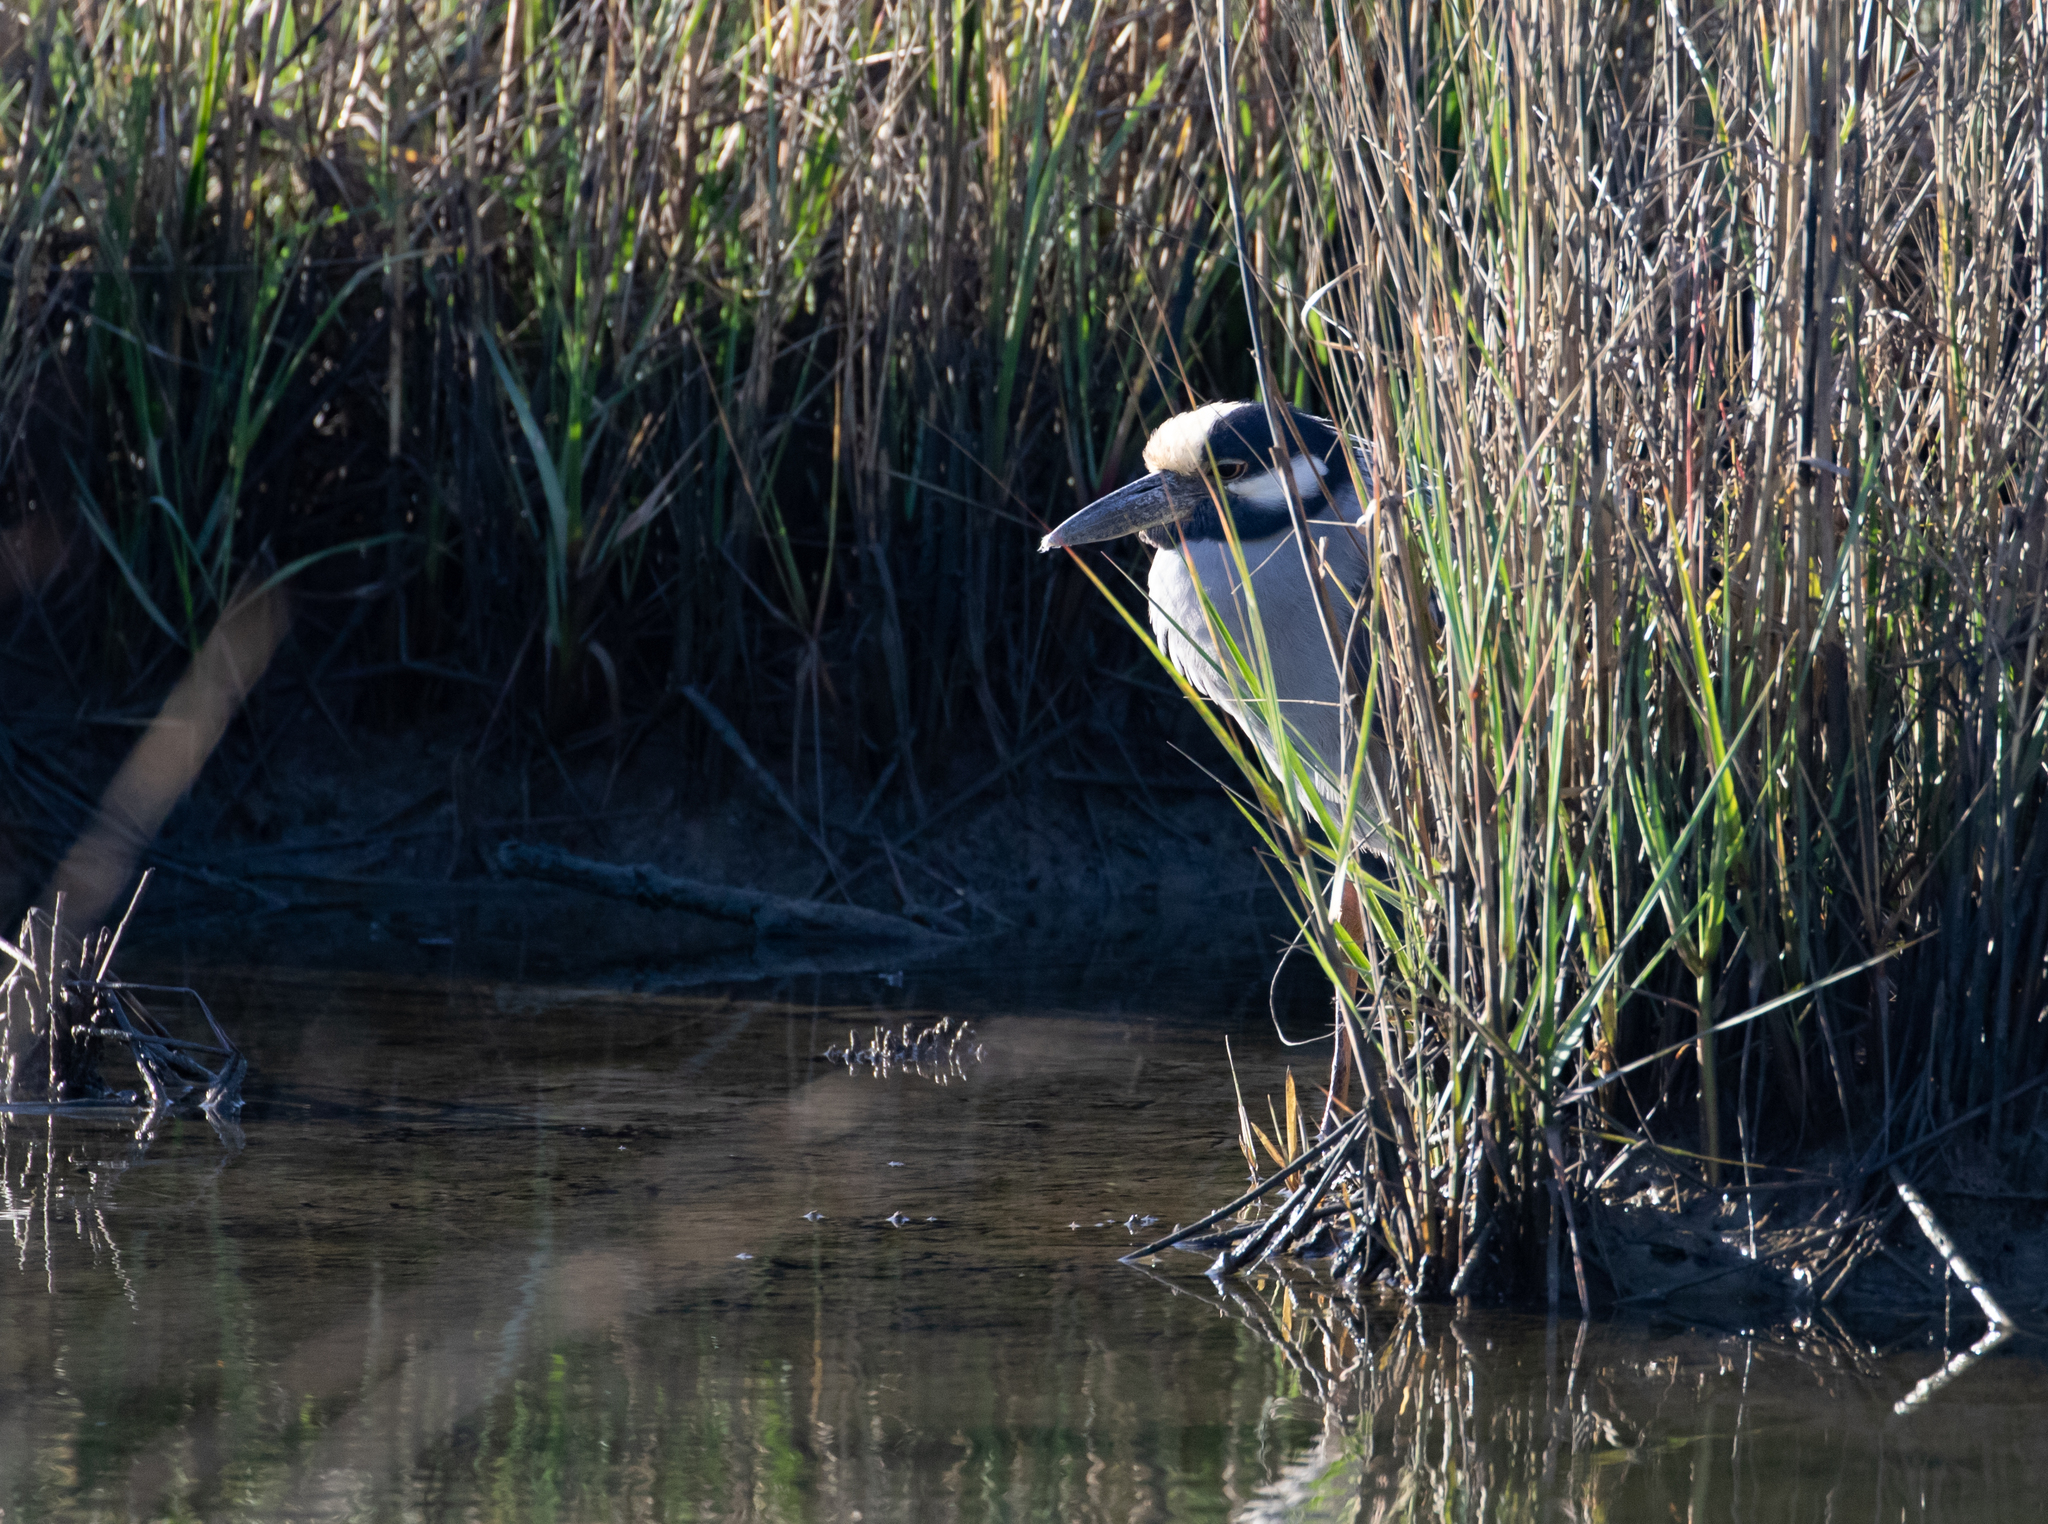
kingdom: Animalia
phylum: Chordata
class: Aves
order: Pelecaniformes
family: Ardeidae
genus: Nyctanassa
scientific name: Nyctanassa violacea
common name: Yellow-crowned night heron
